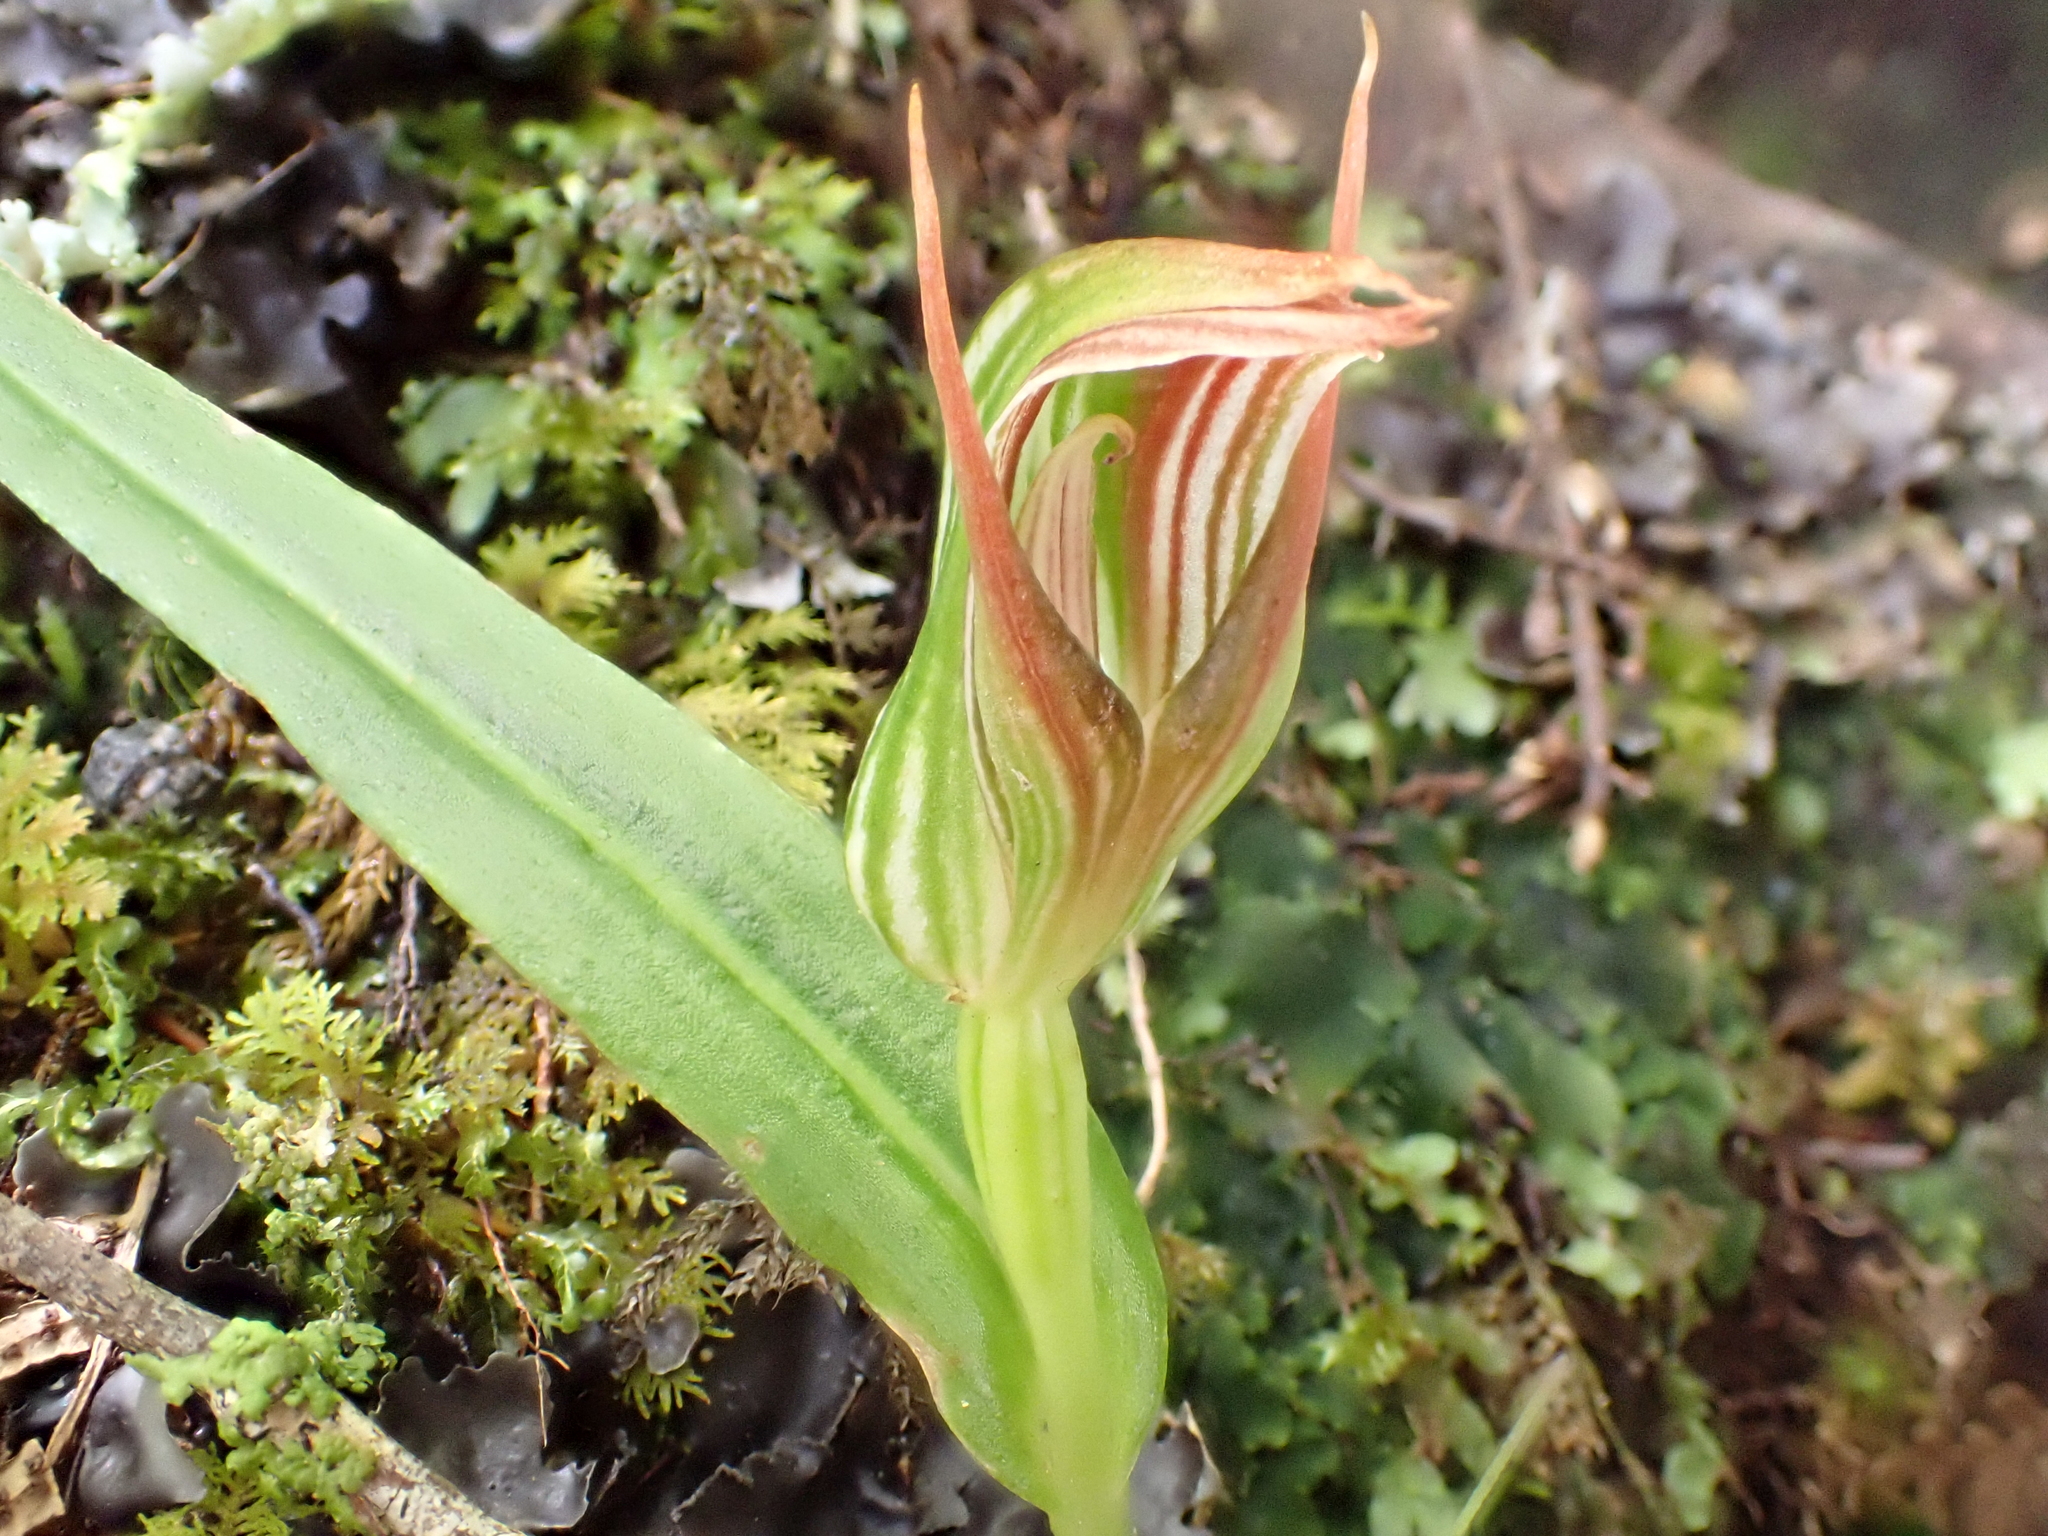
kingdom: Plantae
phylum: Tracheophyta
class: Liliopsida
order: Asparagales
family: Orchidaceae
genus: Pterostylis
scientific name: Pterostylis irsoniana
